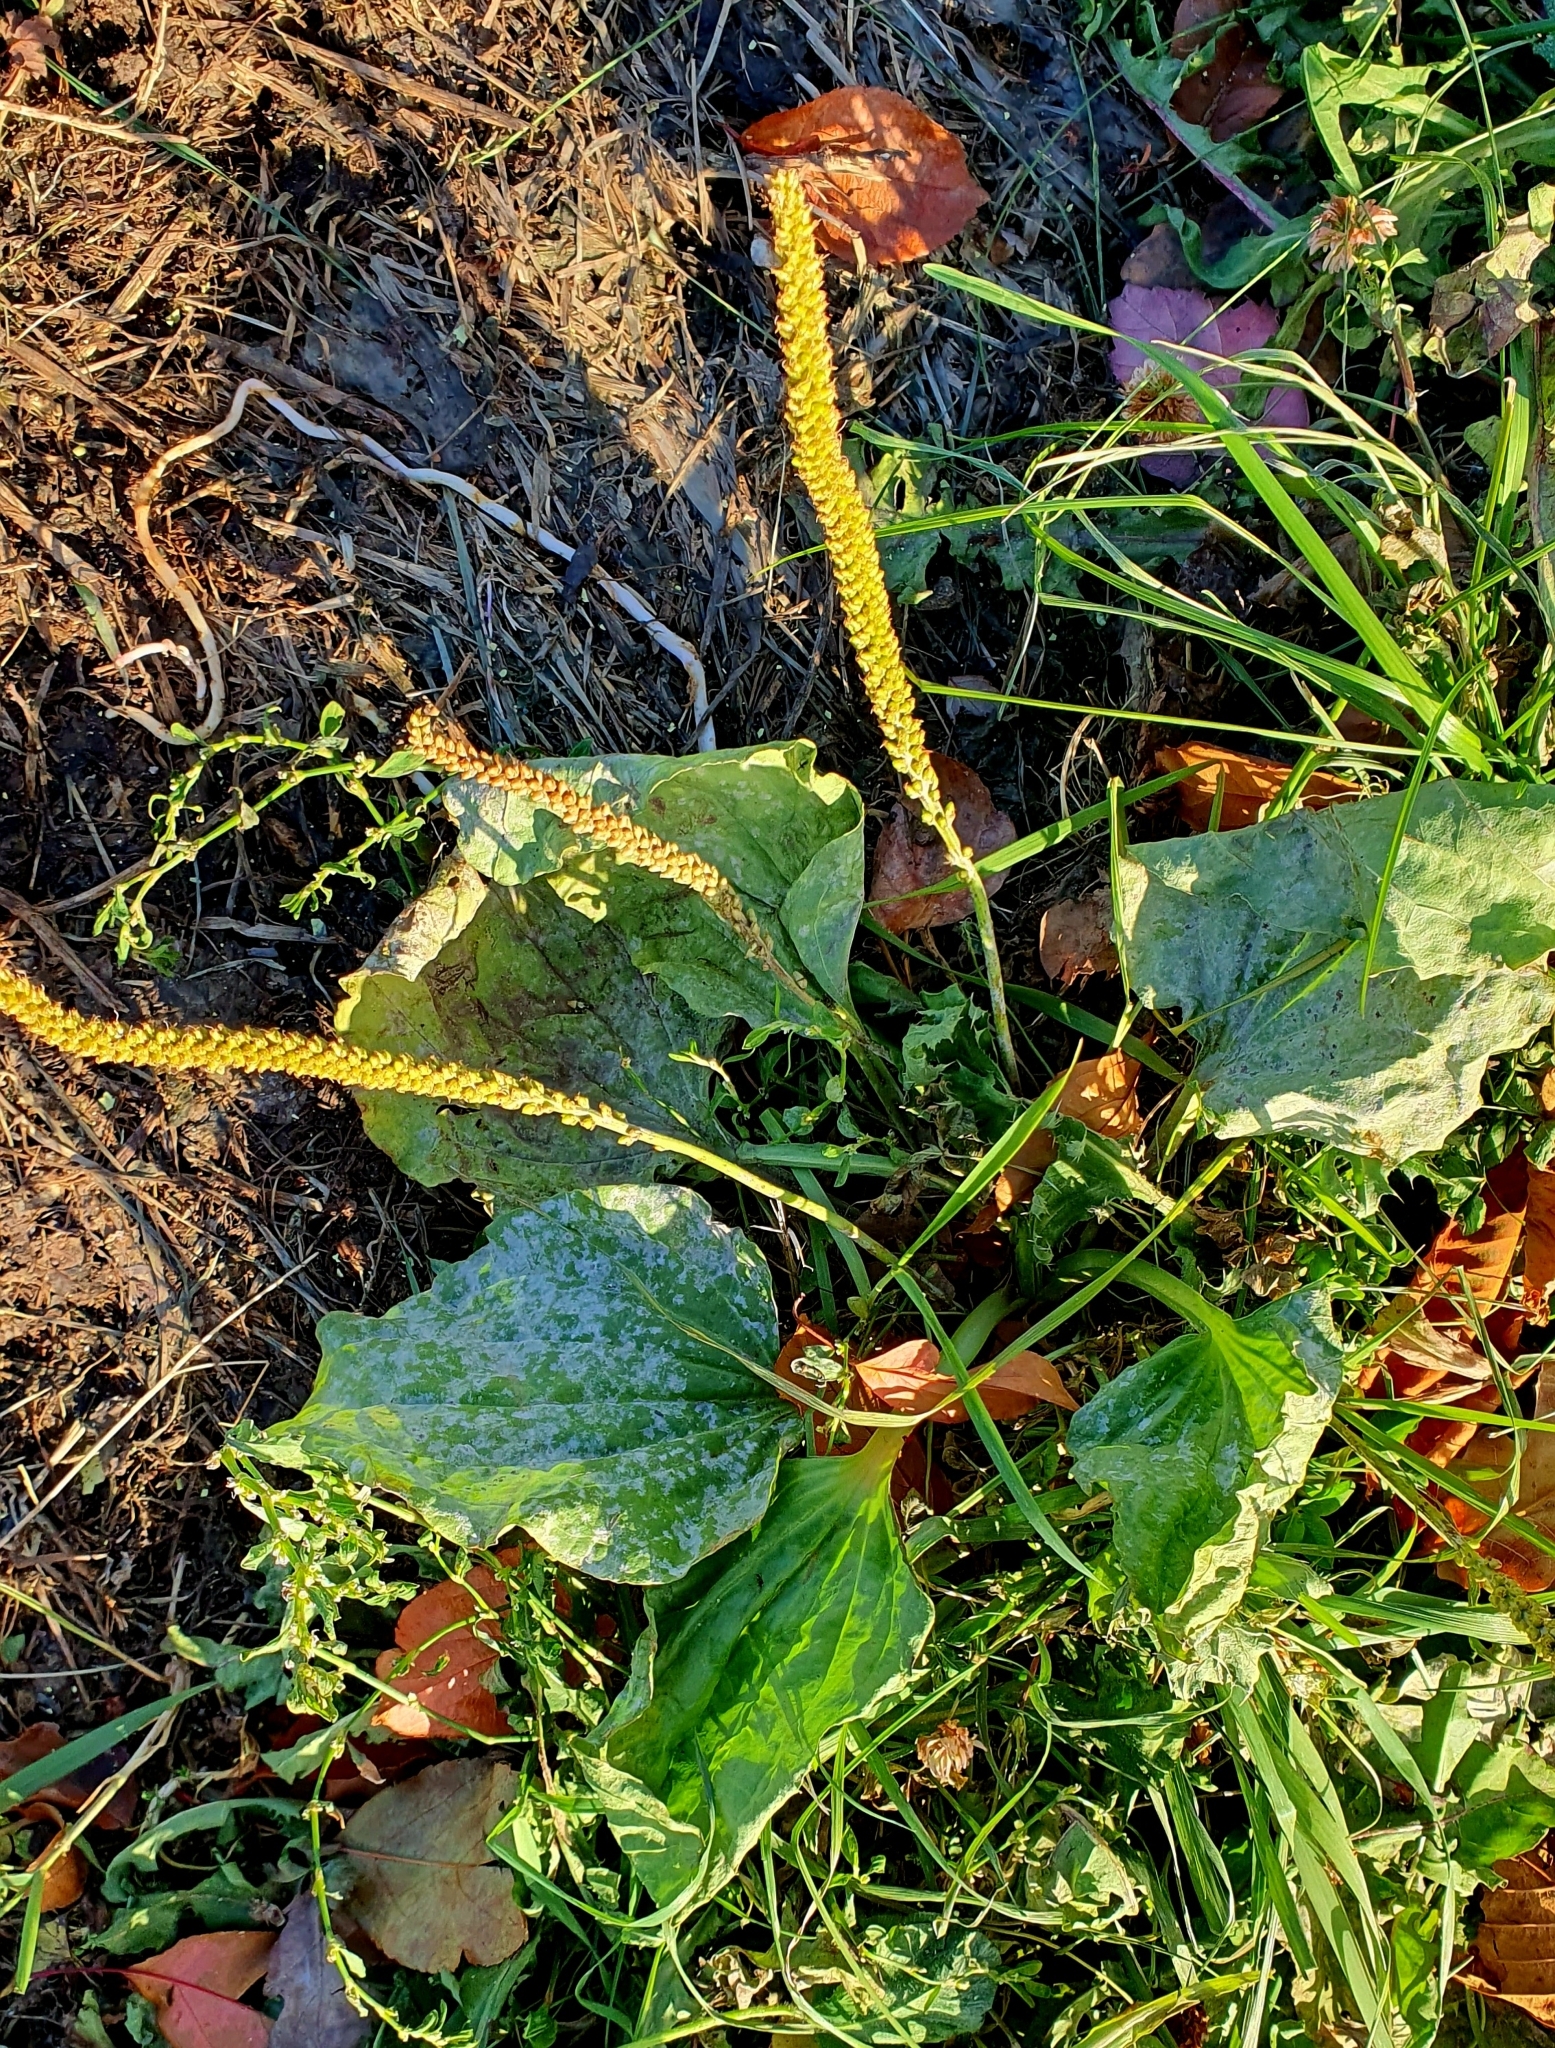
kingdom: Plantae
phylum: Tracheophyta
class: Magnoliopsida
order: Lamiales
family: Plantaginaceae
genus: Plantago
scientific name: Plantago major
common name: Common plantain
